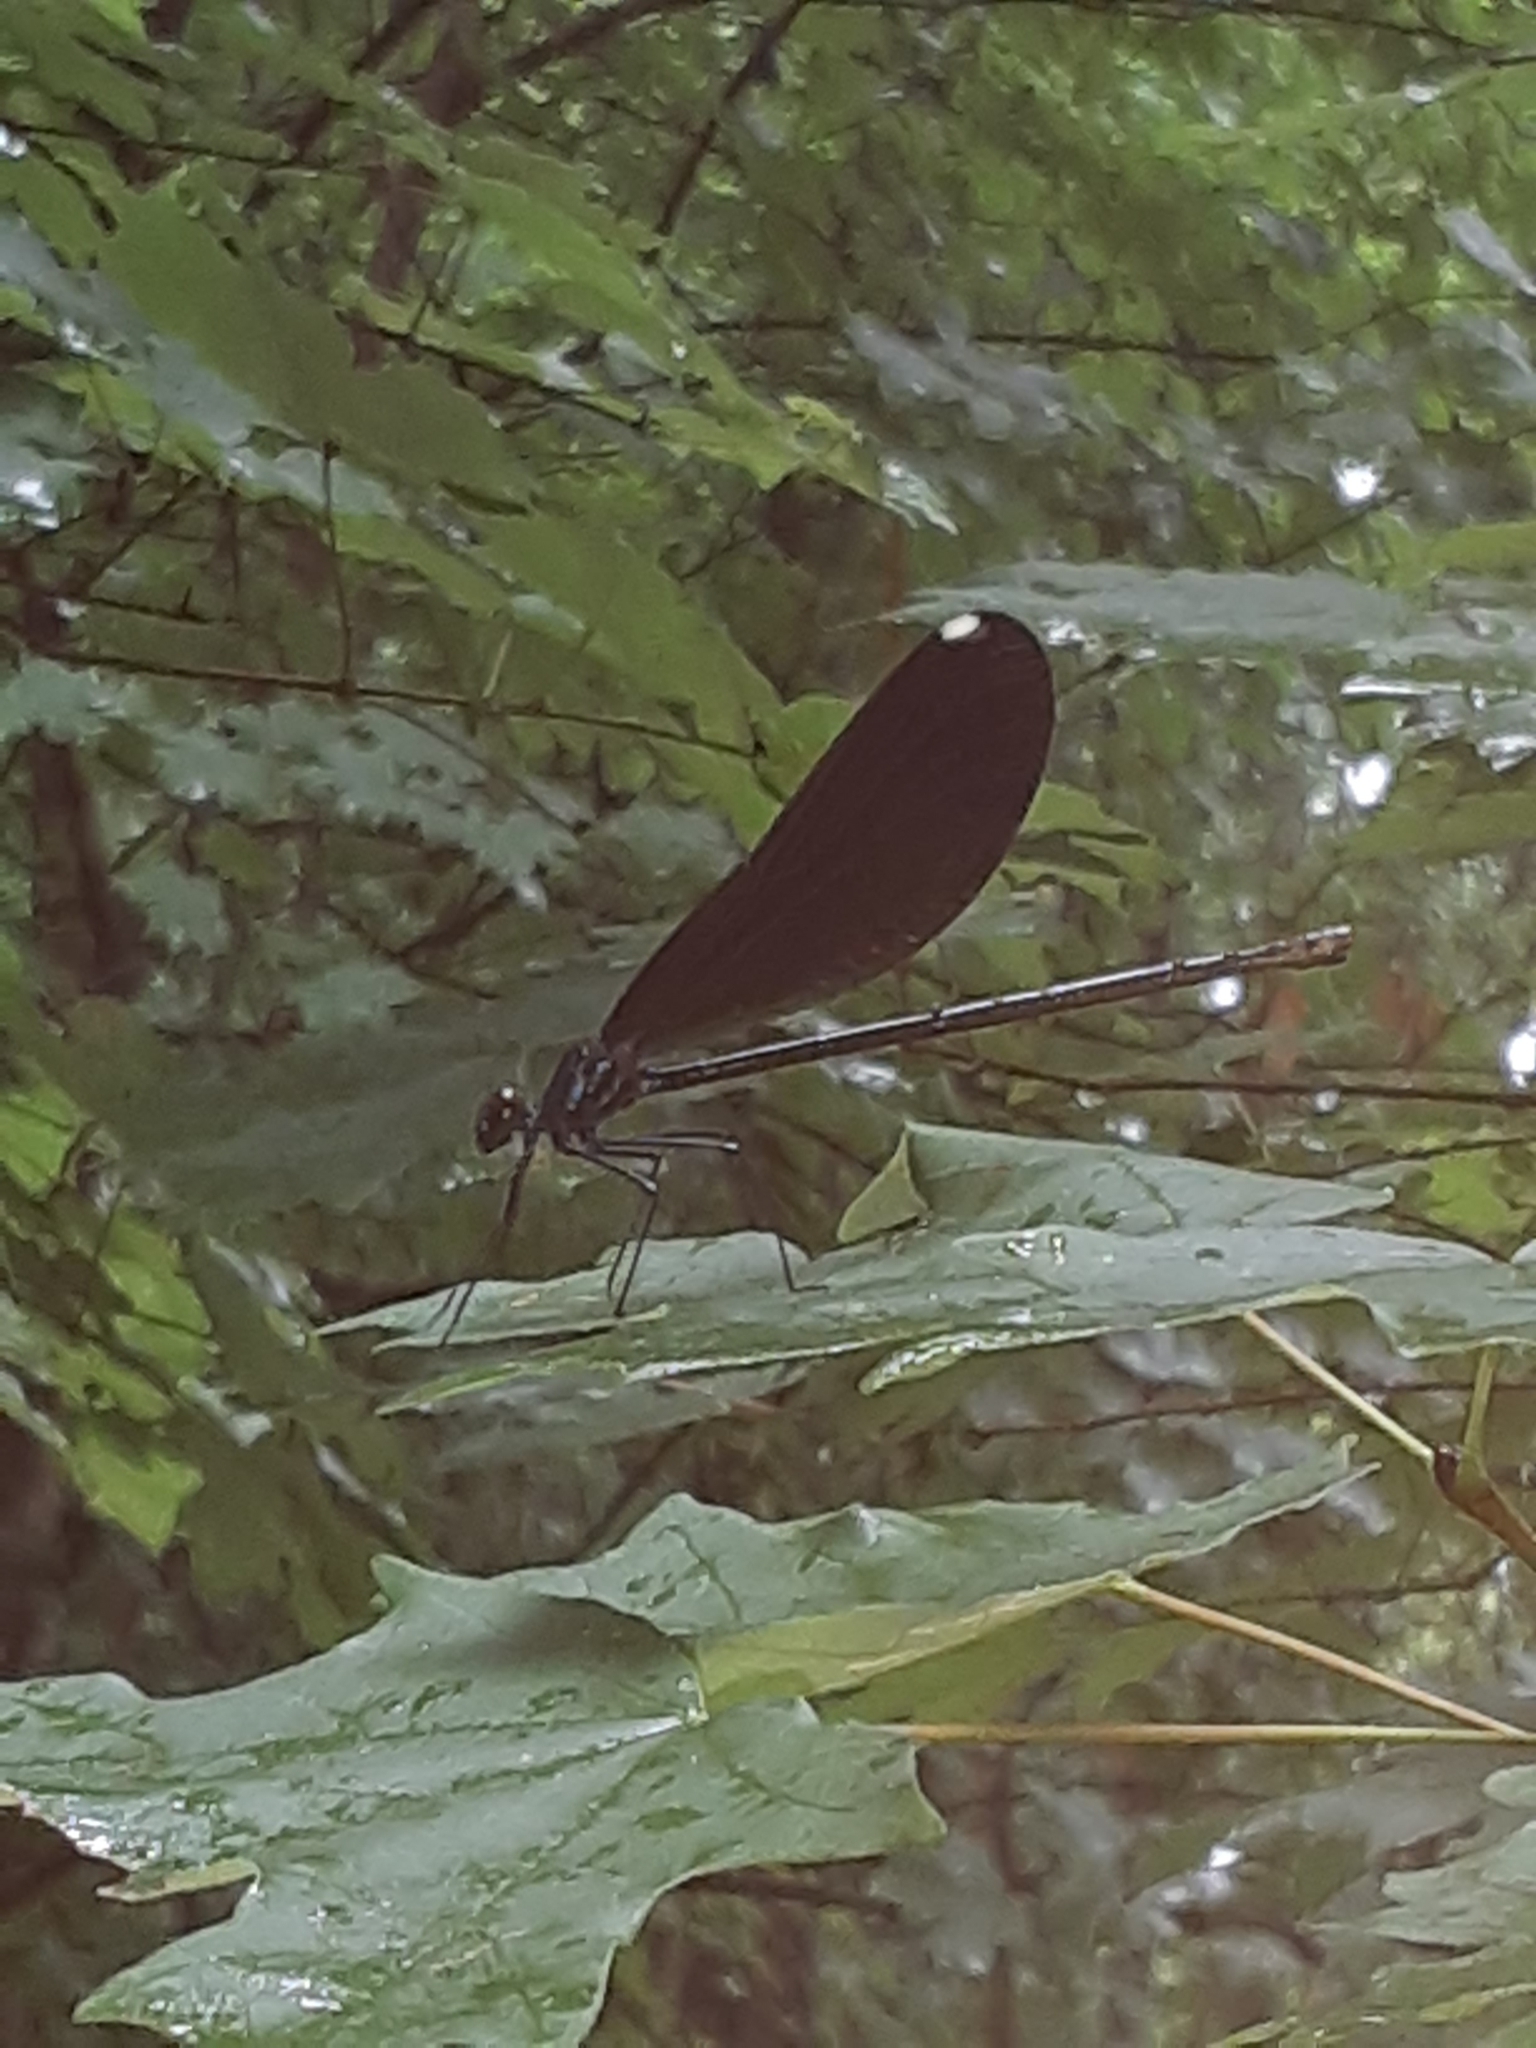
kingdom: Animalia
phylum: Arthropoda
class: Insecta
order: Odonata
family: Calopterygidae
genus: Calopteryx
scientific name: Calopteryx maculata
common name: Ebony jewelwing
